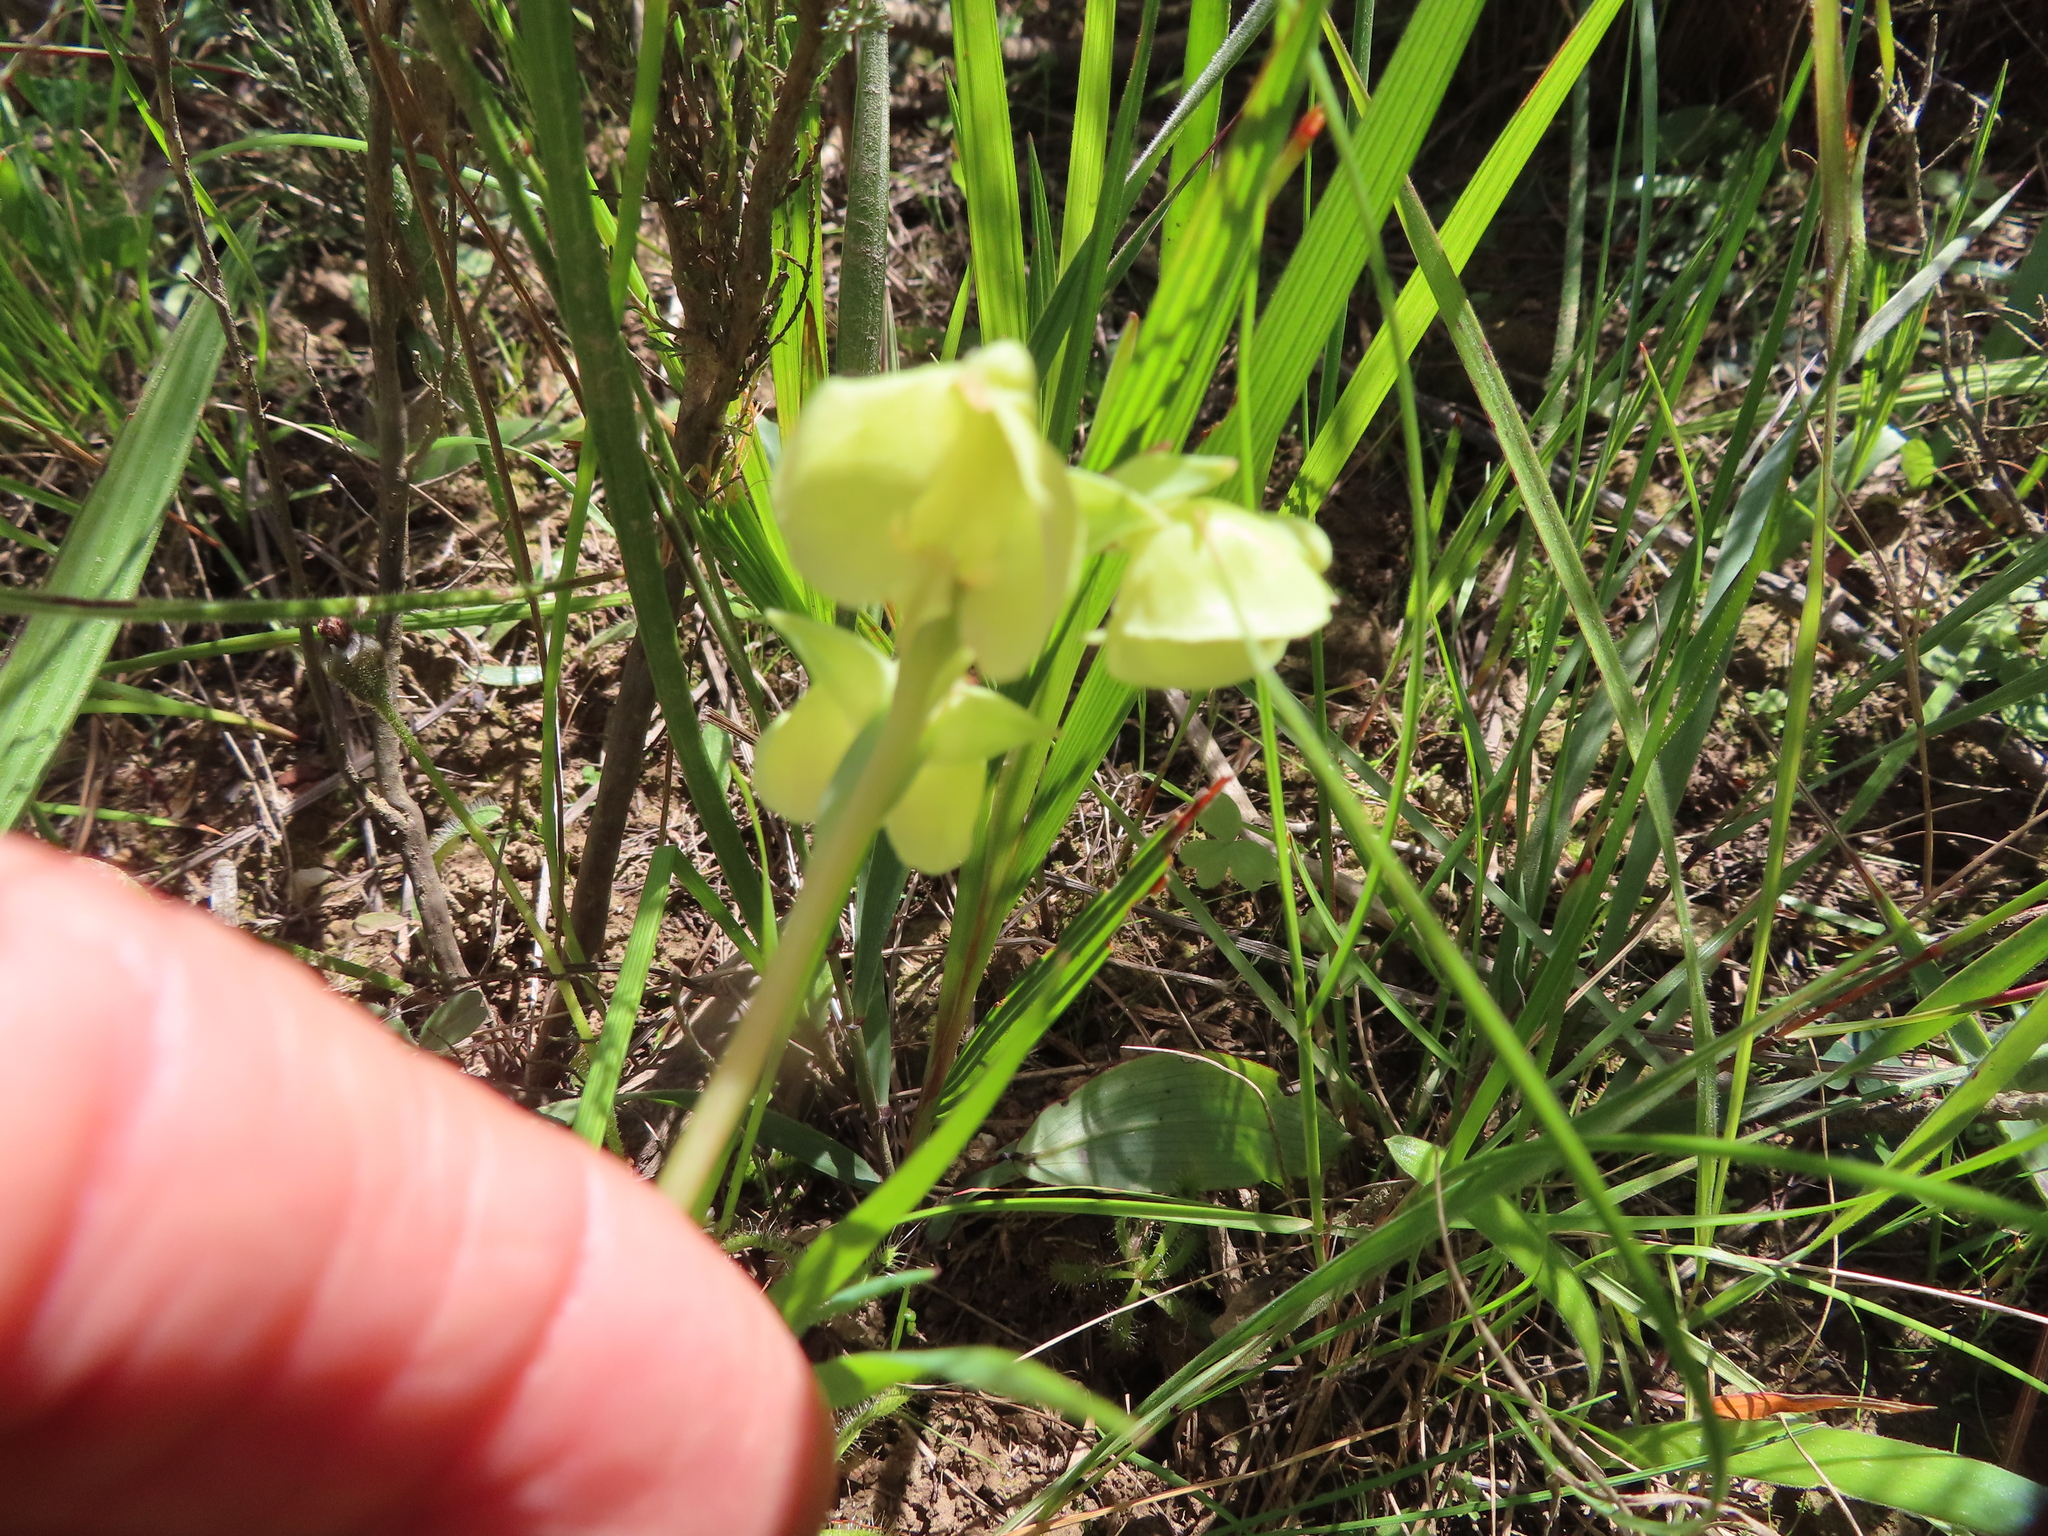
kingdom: Plantae
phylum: Tracheophyta
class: Liliopsida
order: Asparagales
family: Orchidaceae
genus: Pterygodium
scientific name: Pterygodium catholicum
